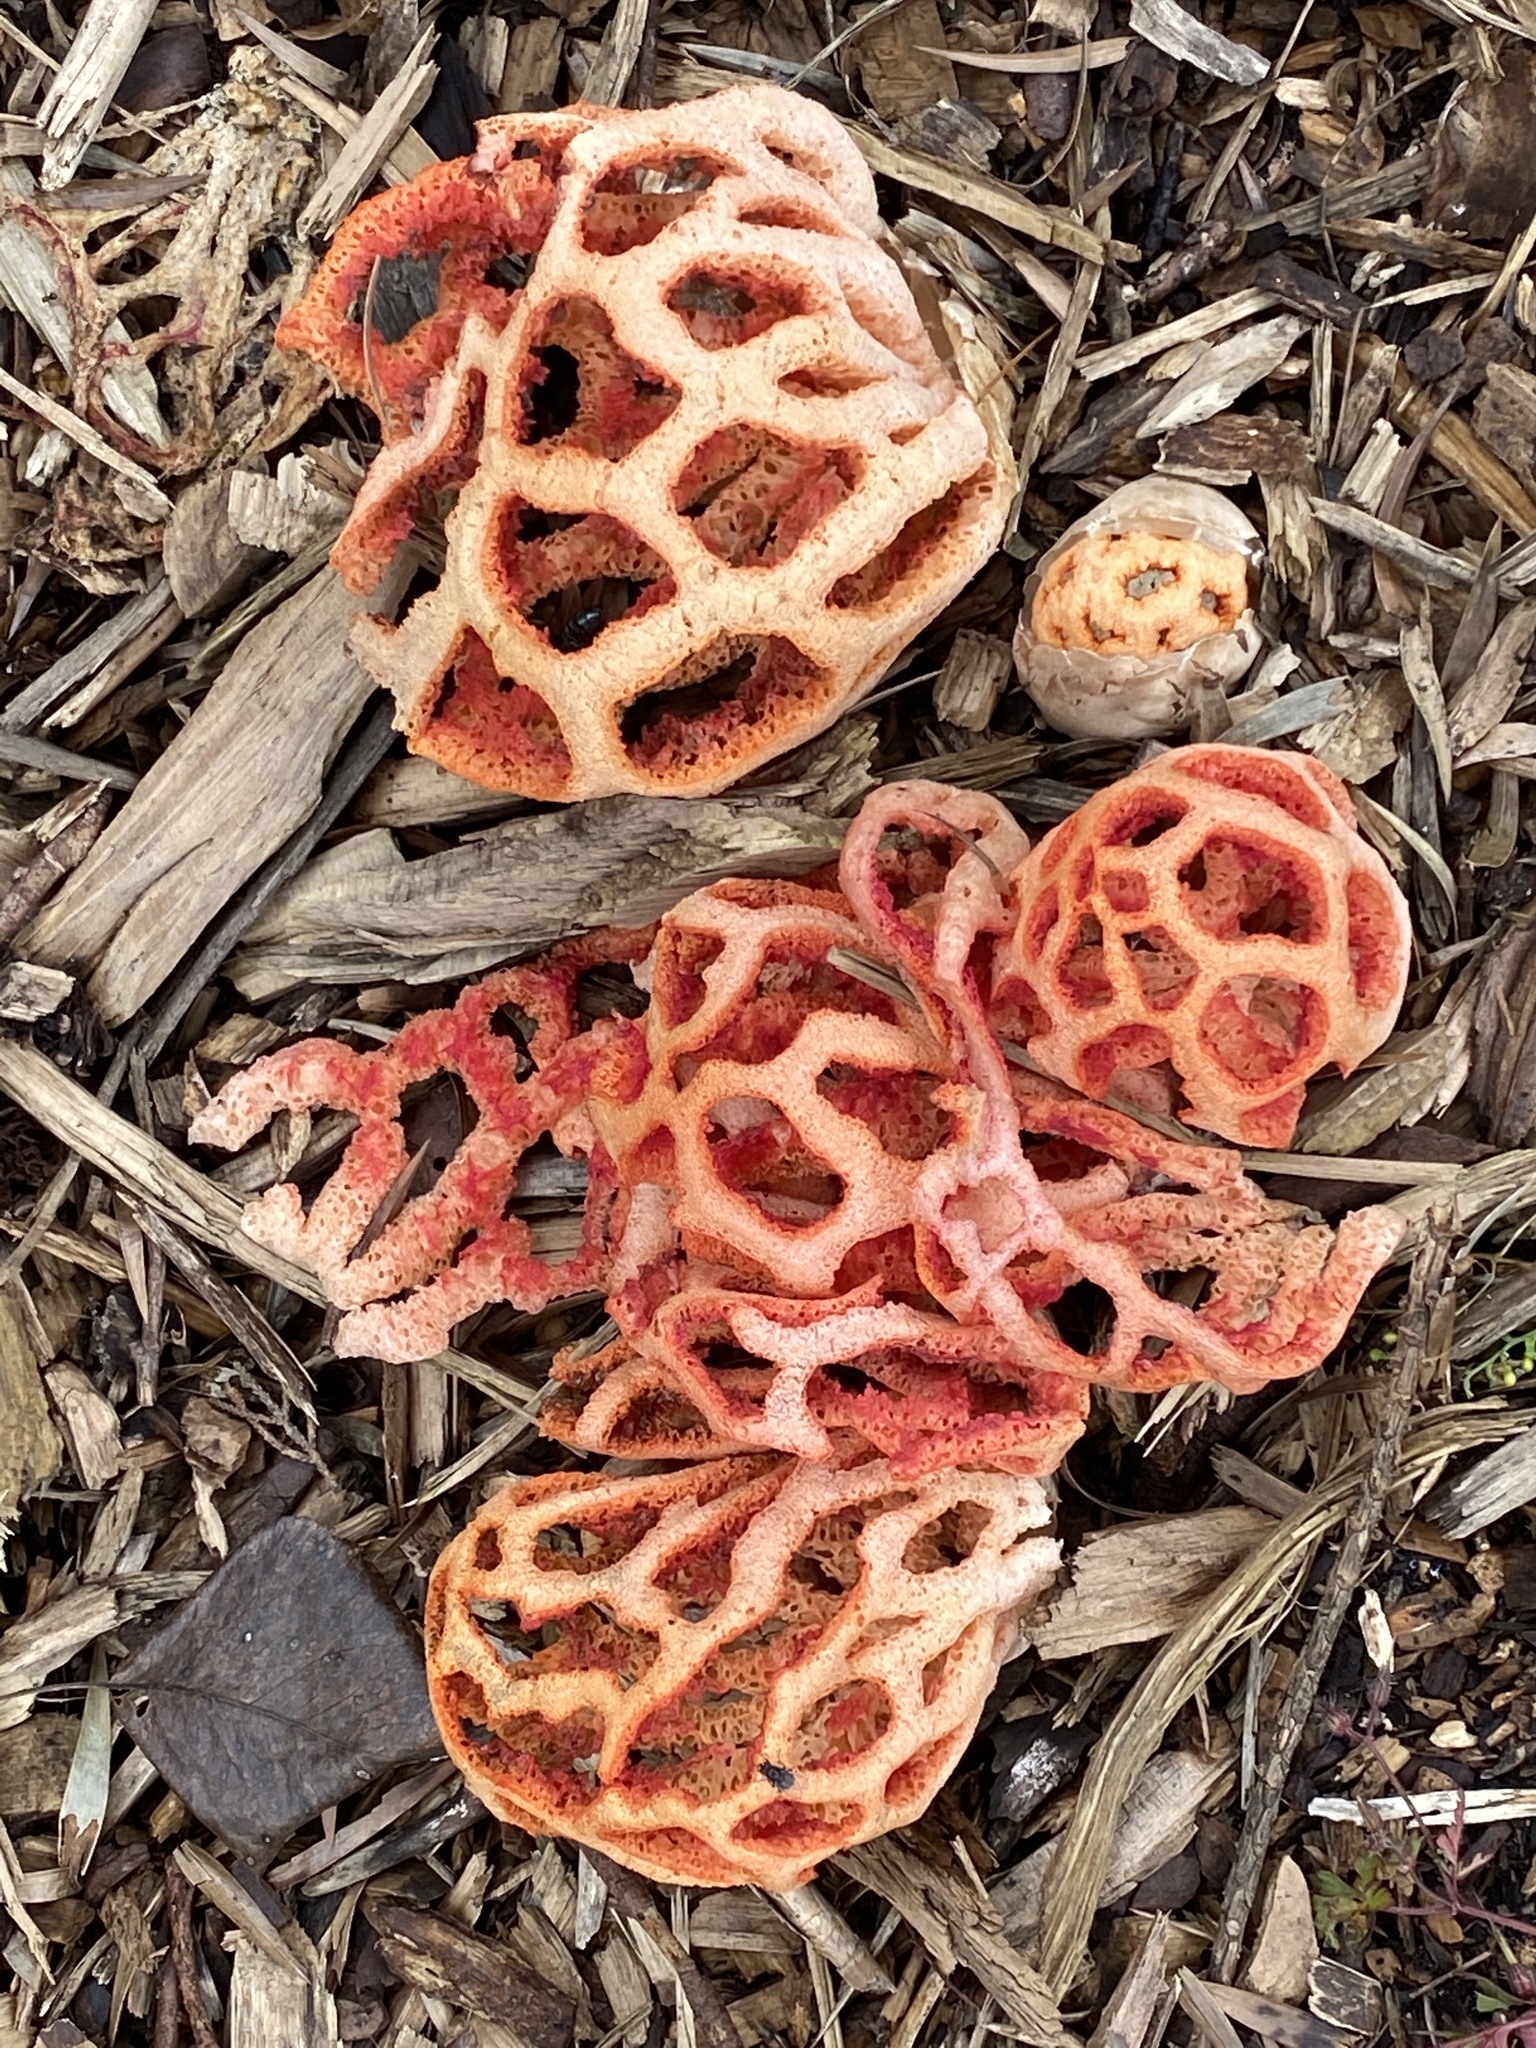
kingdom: Fungi
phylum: Basidiomycota
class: Agaricomycetes
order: Phallales
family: Phallaceae
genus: Clathrus
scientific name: Clathrus ruber
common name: Red cage
